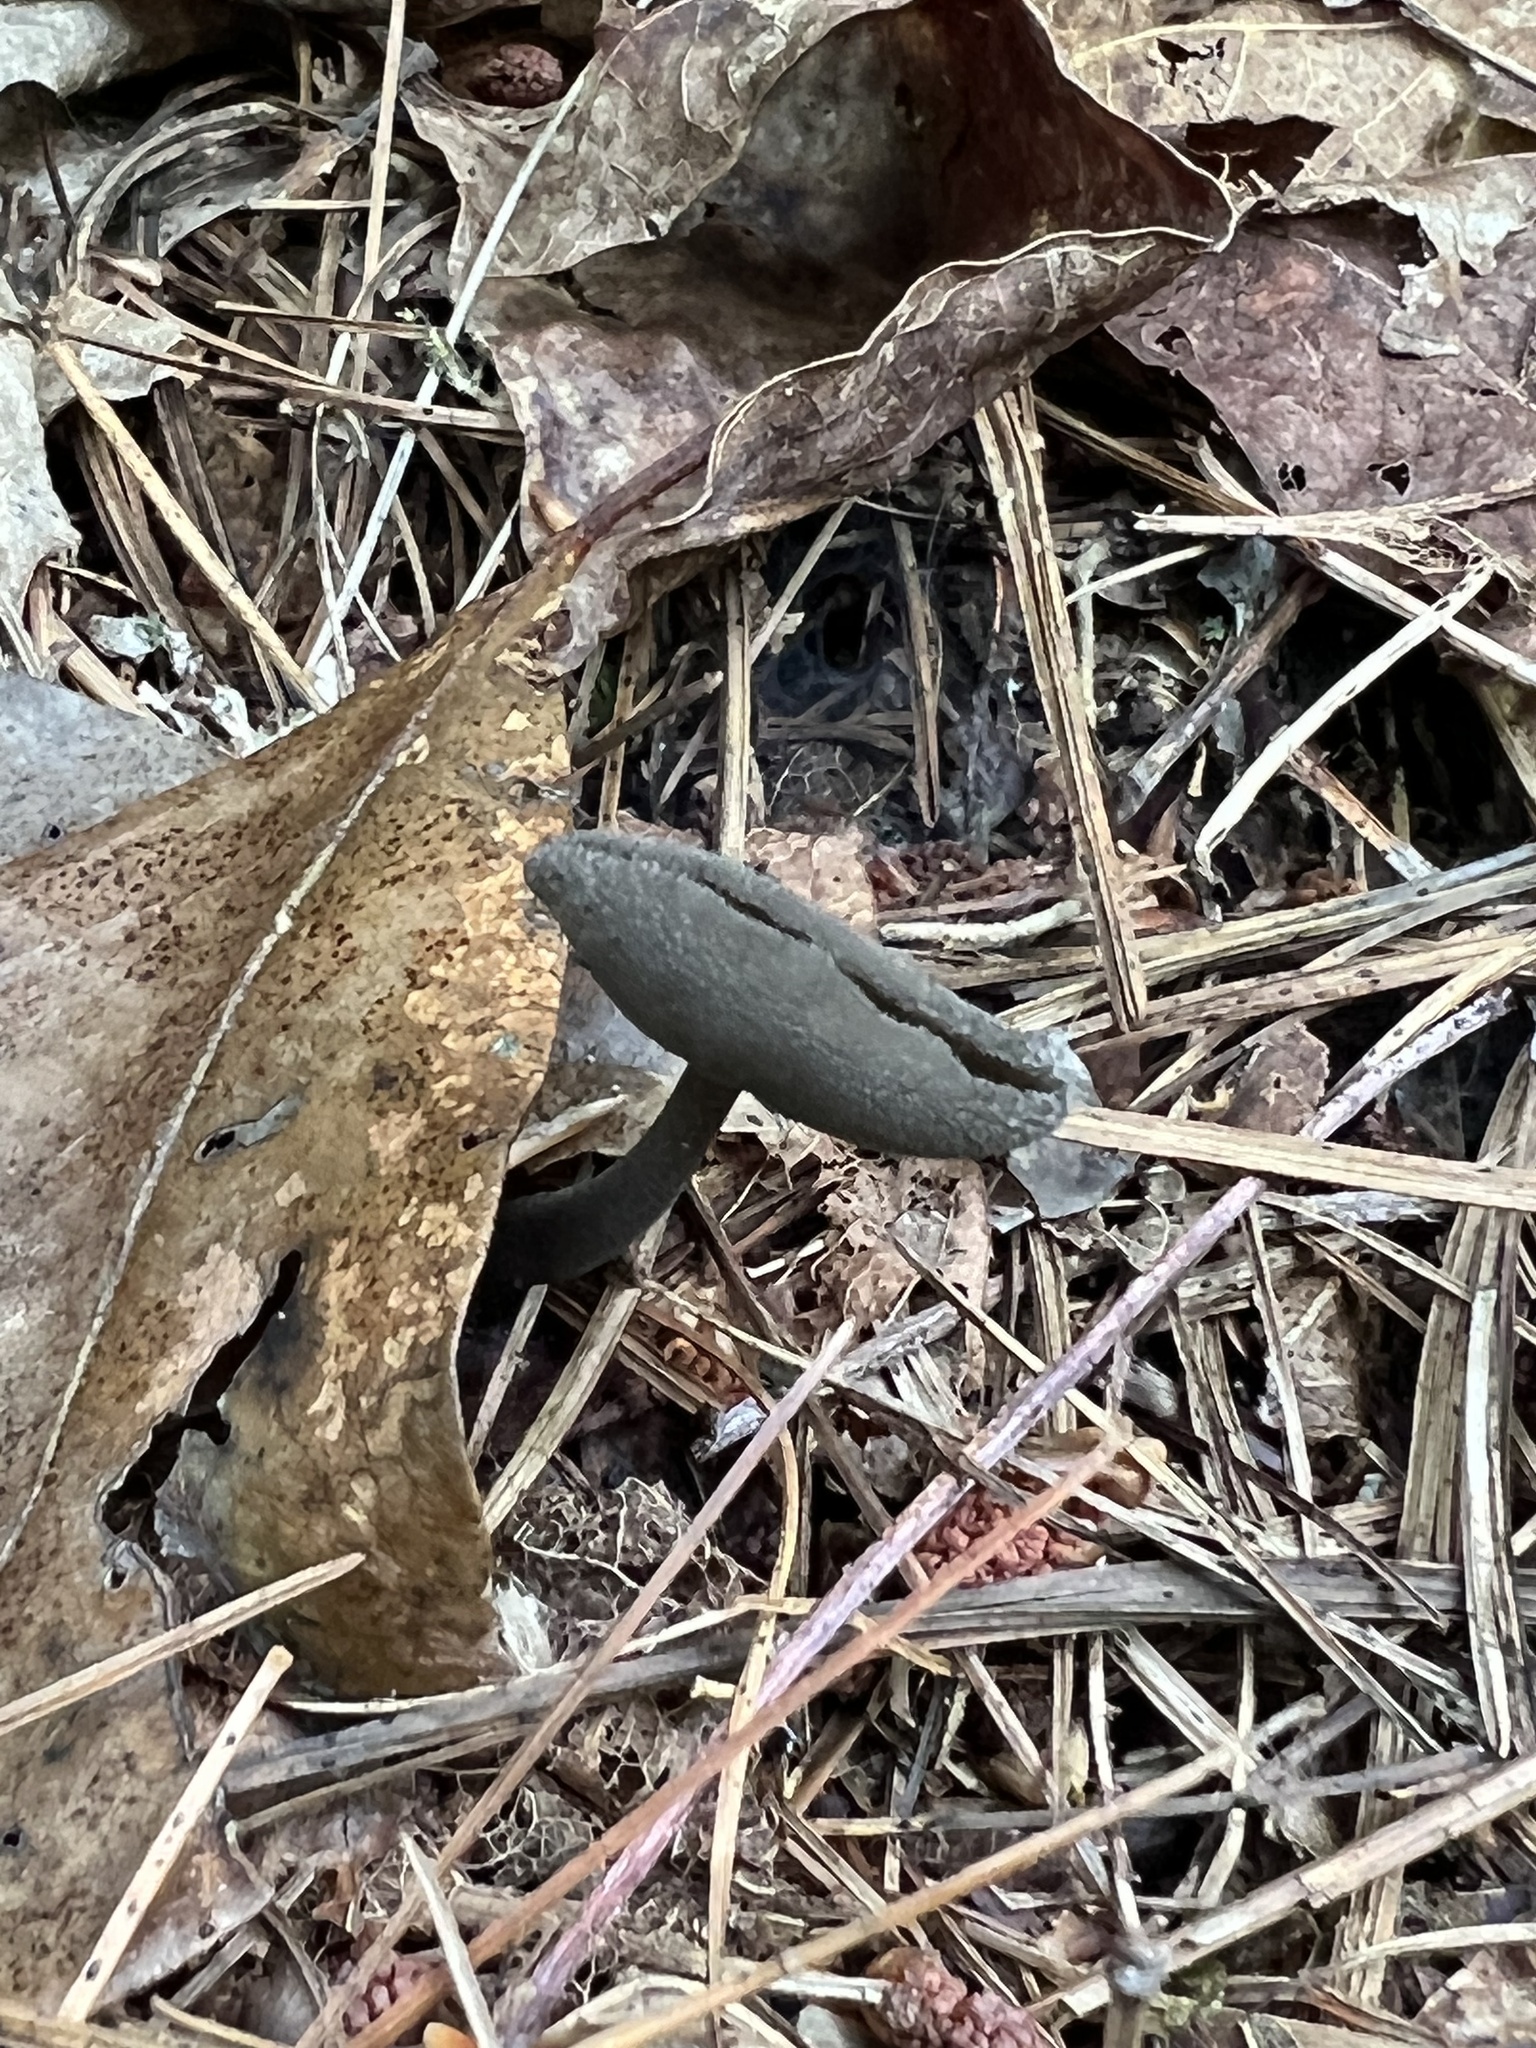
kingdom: Fungi
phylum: Ascomycota
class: Pezizomycetes
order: Pezizales
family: Helvellaceae
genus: Helvella
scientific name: Helvella macropus
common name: Felt saddle
